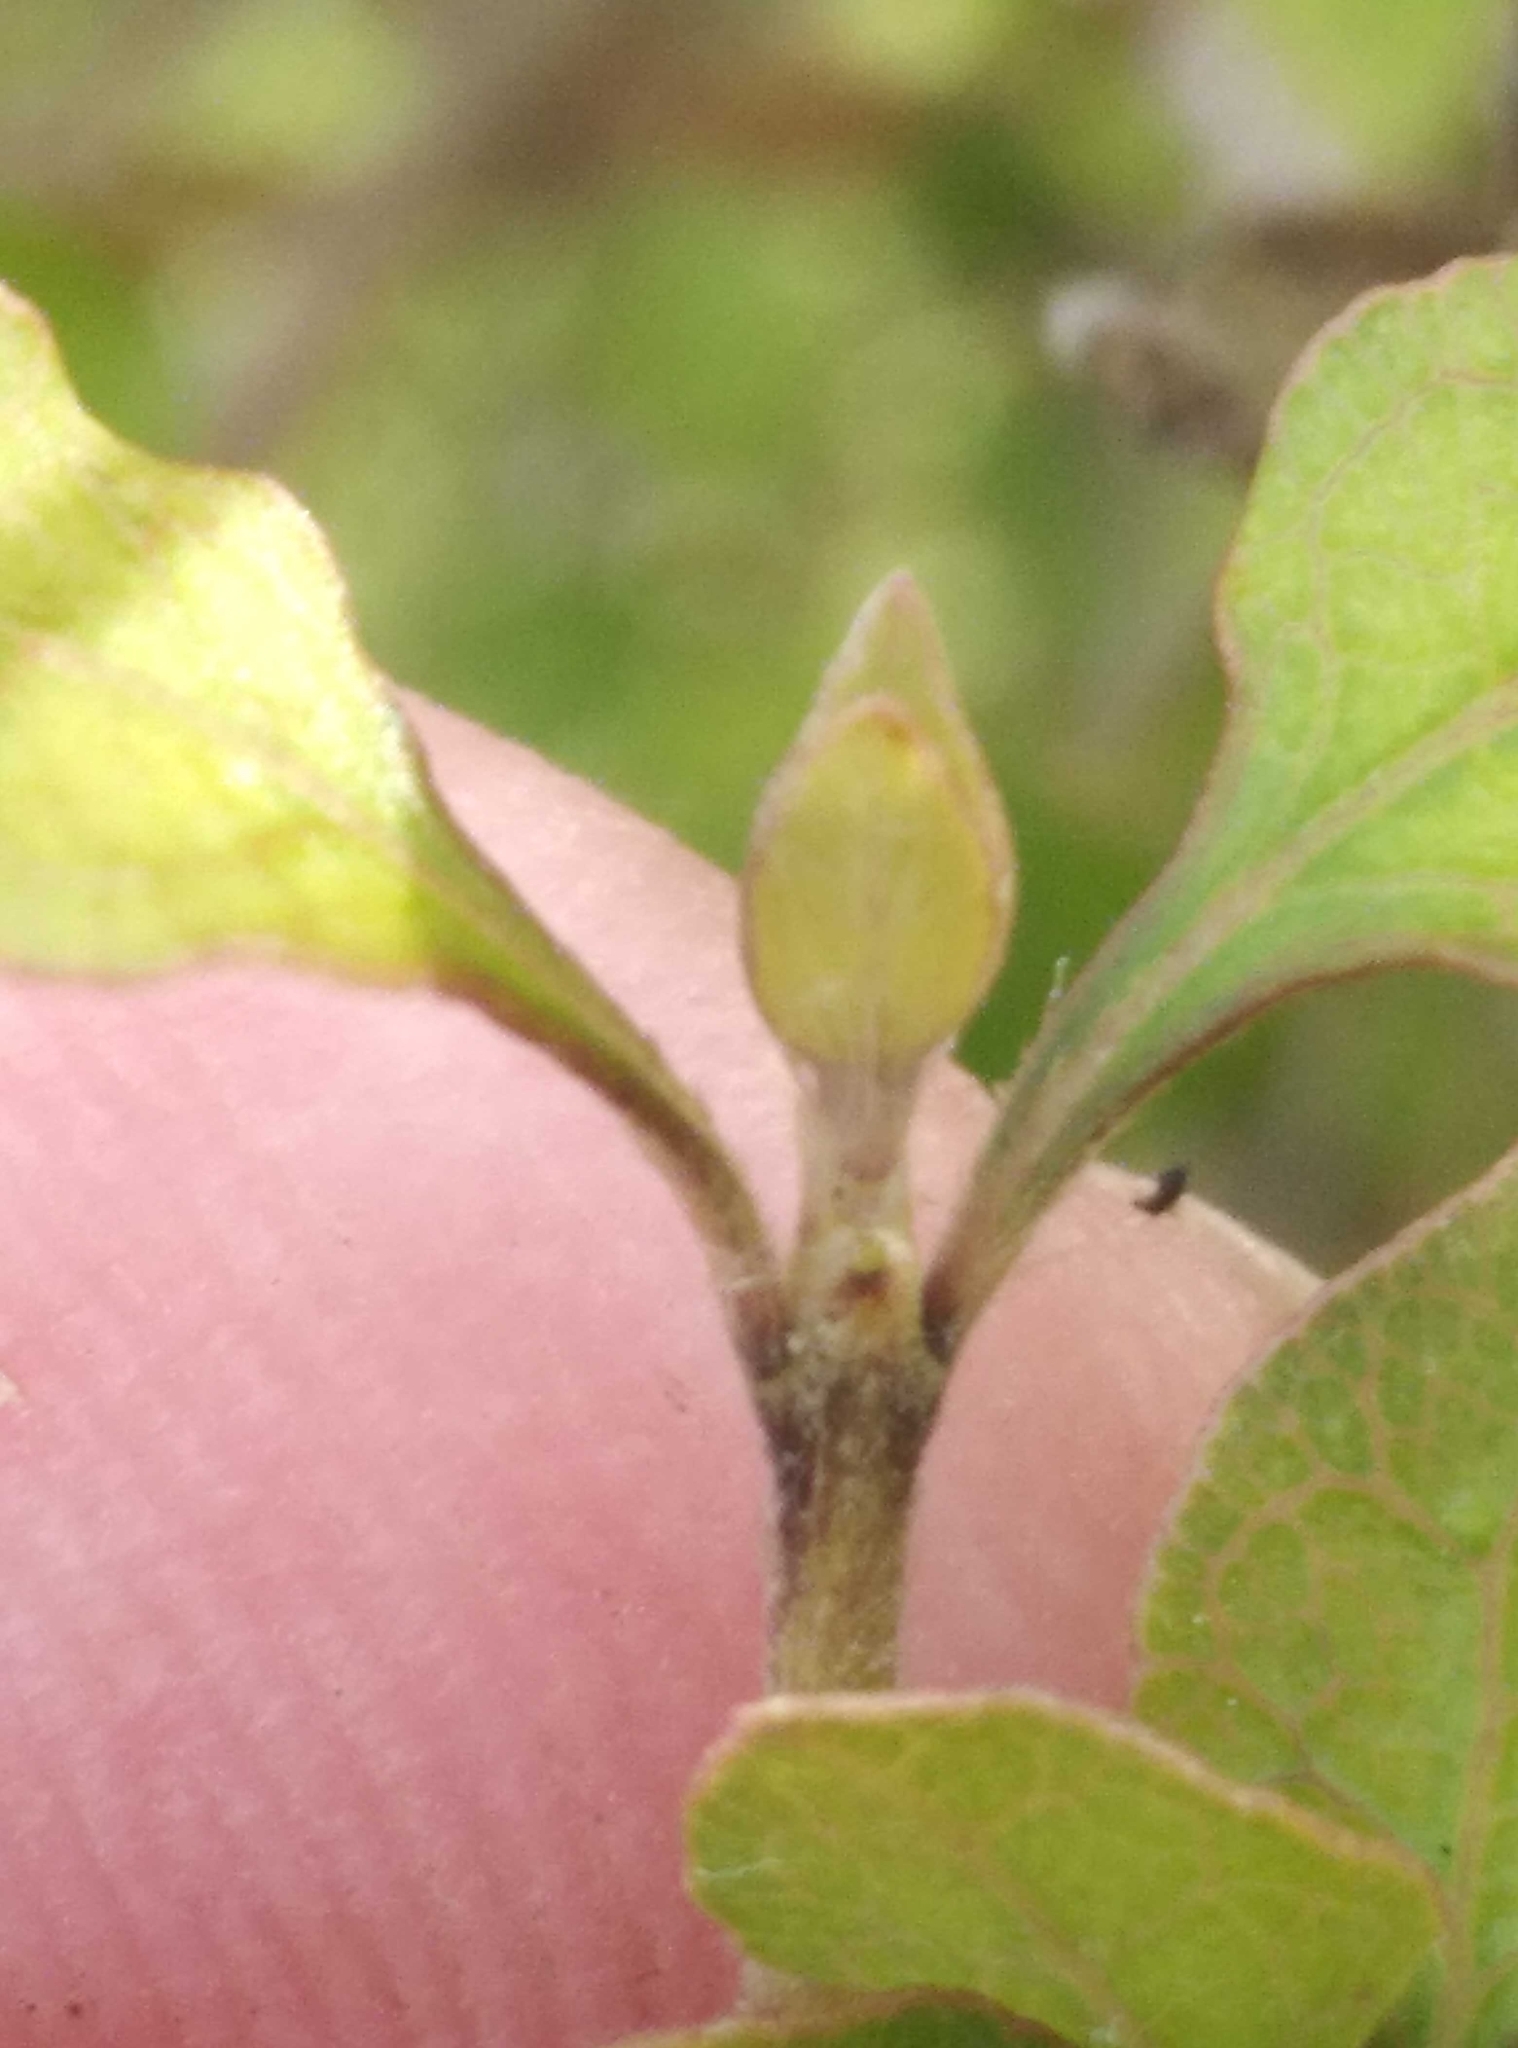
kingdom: Plantae
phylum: Tracheophyta
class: Magnoliopsida
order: Gentianales
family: Rubiaceae
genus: Coprosma
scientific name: Coprosma areolata
